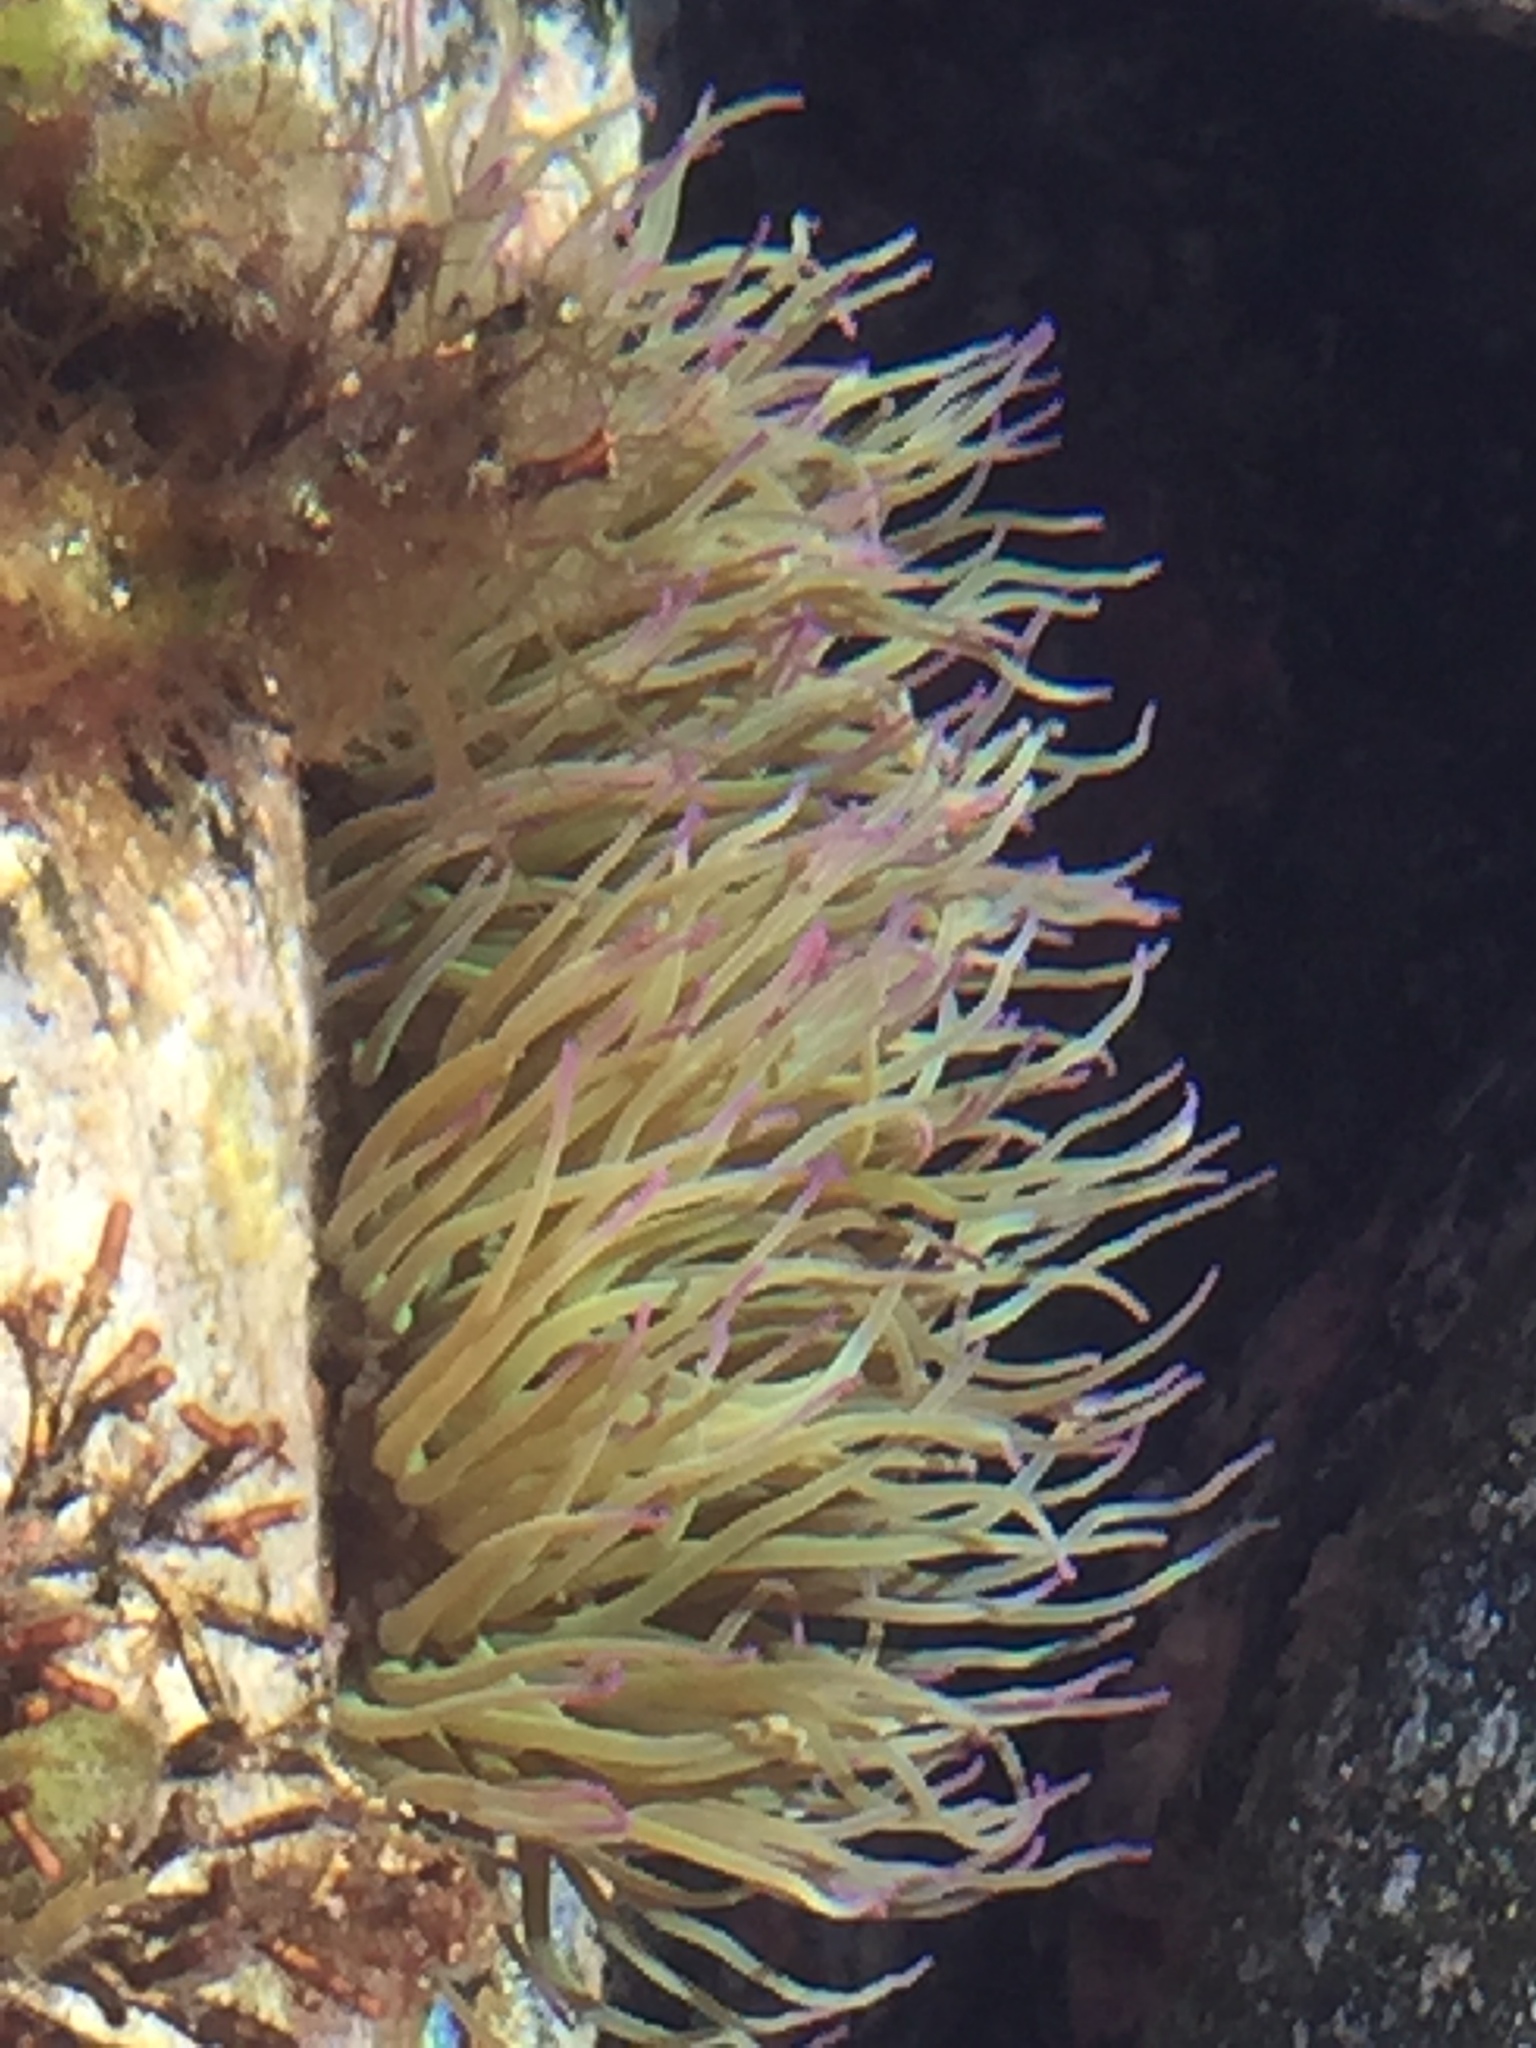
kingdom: Animalia
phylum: Cnidaria
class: Anthozoa
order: Actiniaria
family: Actiniidae
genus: Anemonia
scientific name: Anemonia viridis
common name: Snakelocks anemone
